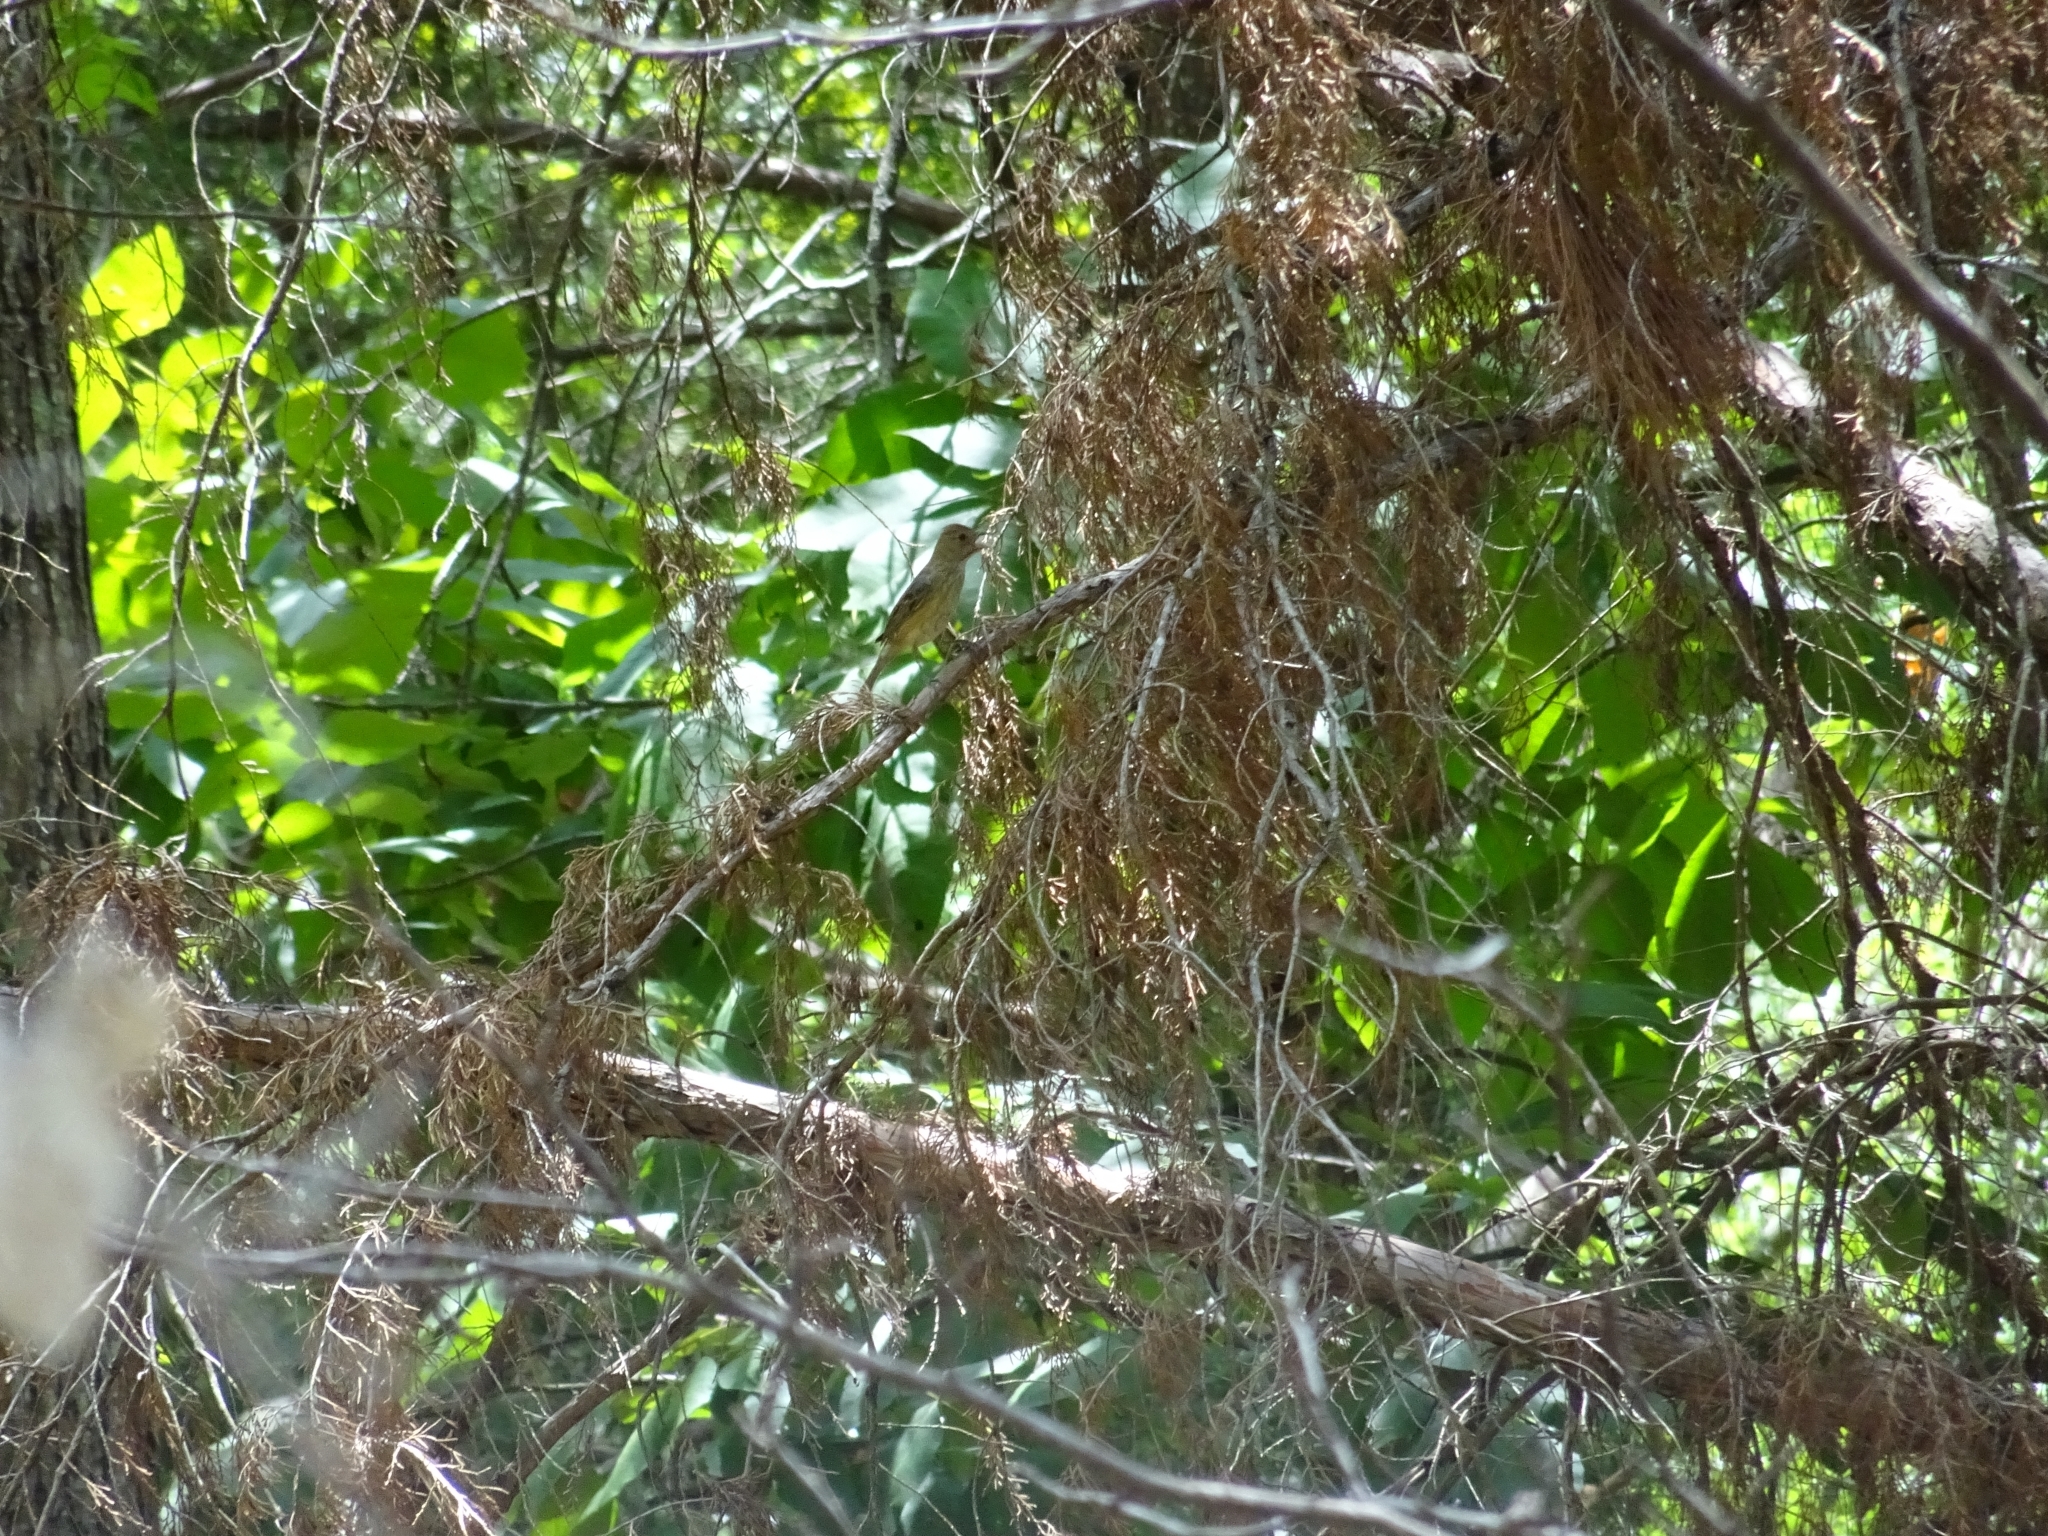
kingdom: Animalia
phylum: Chordata
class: Aves
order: Passeriformes
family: Cardinalidae
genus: Passerina
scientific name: Passerina cyanea
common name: Indigo bunting
